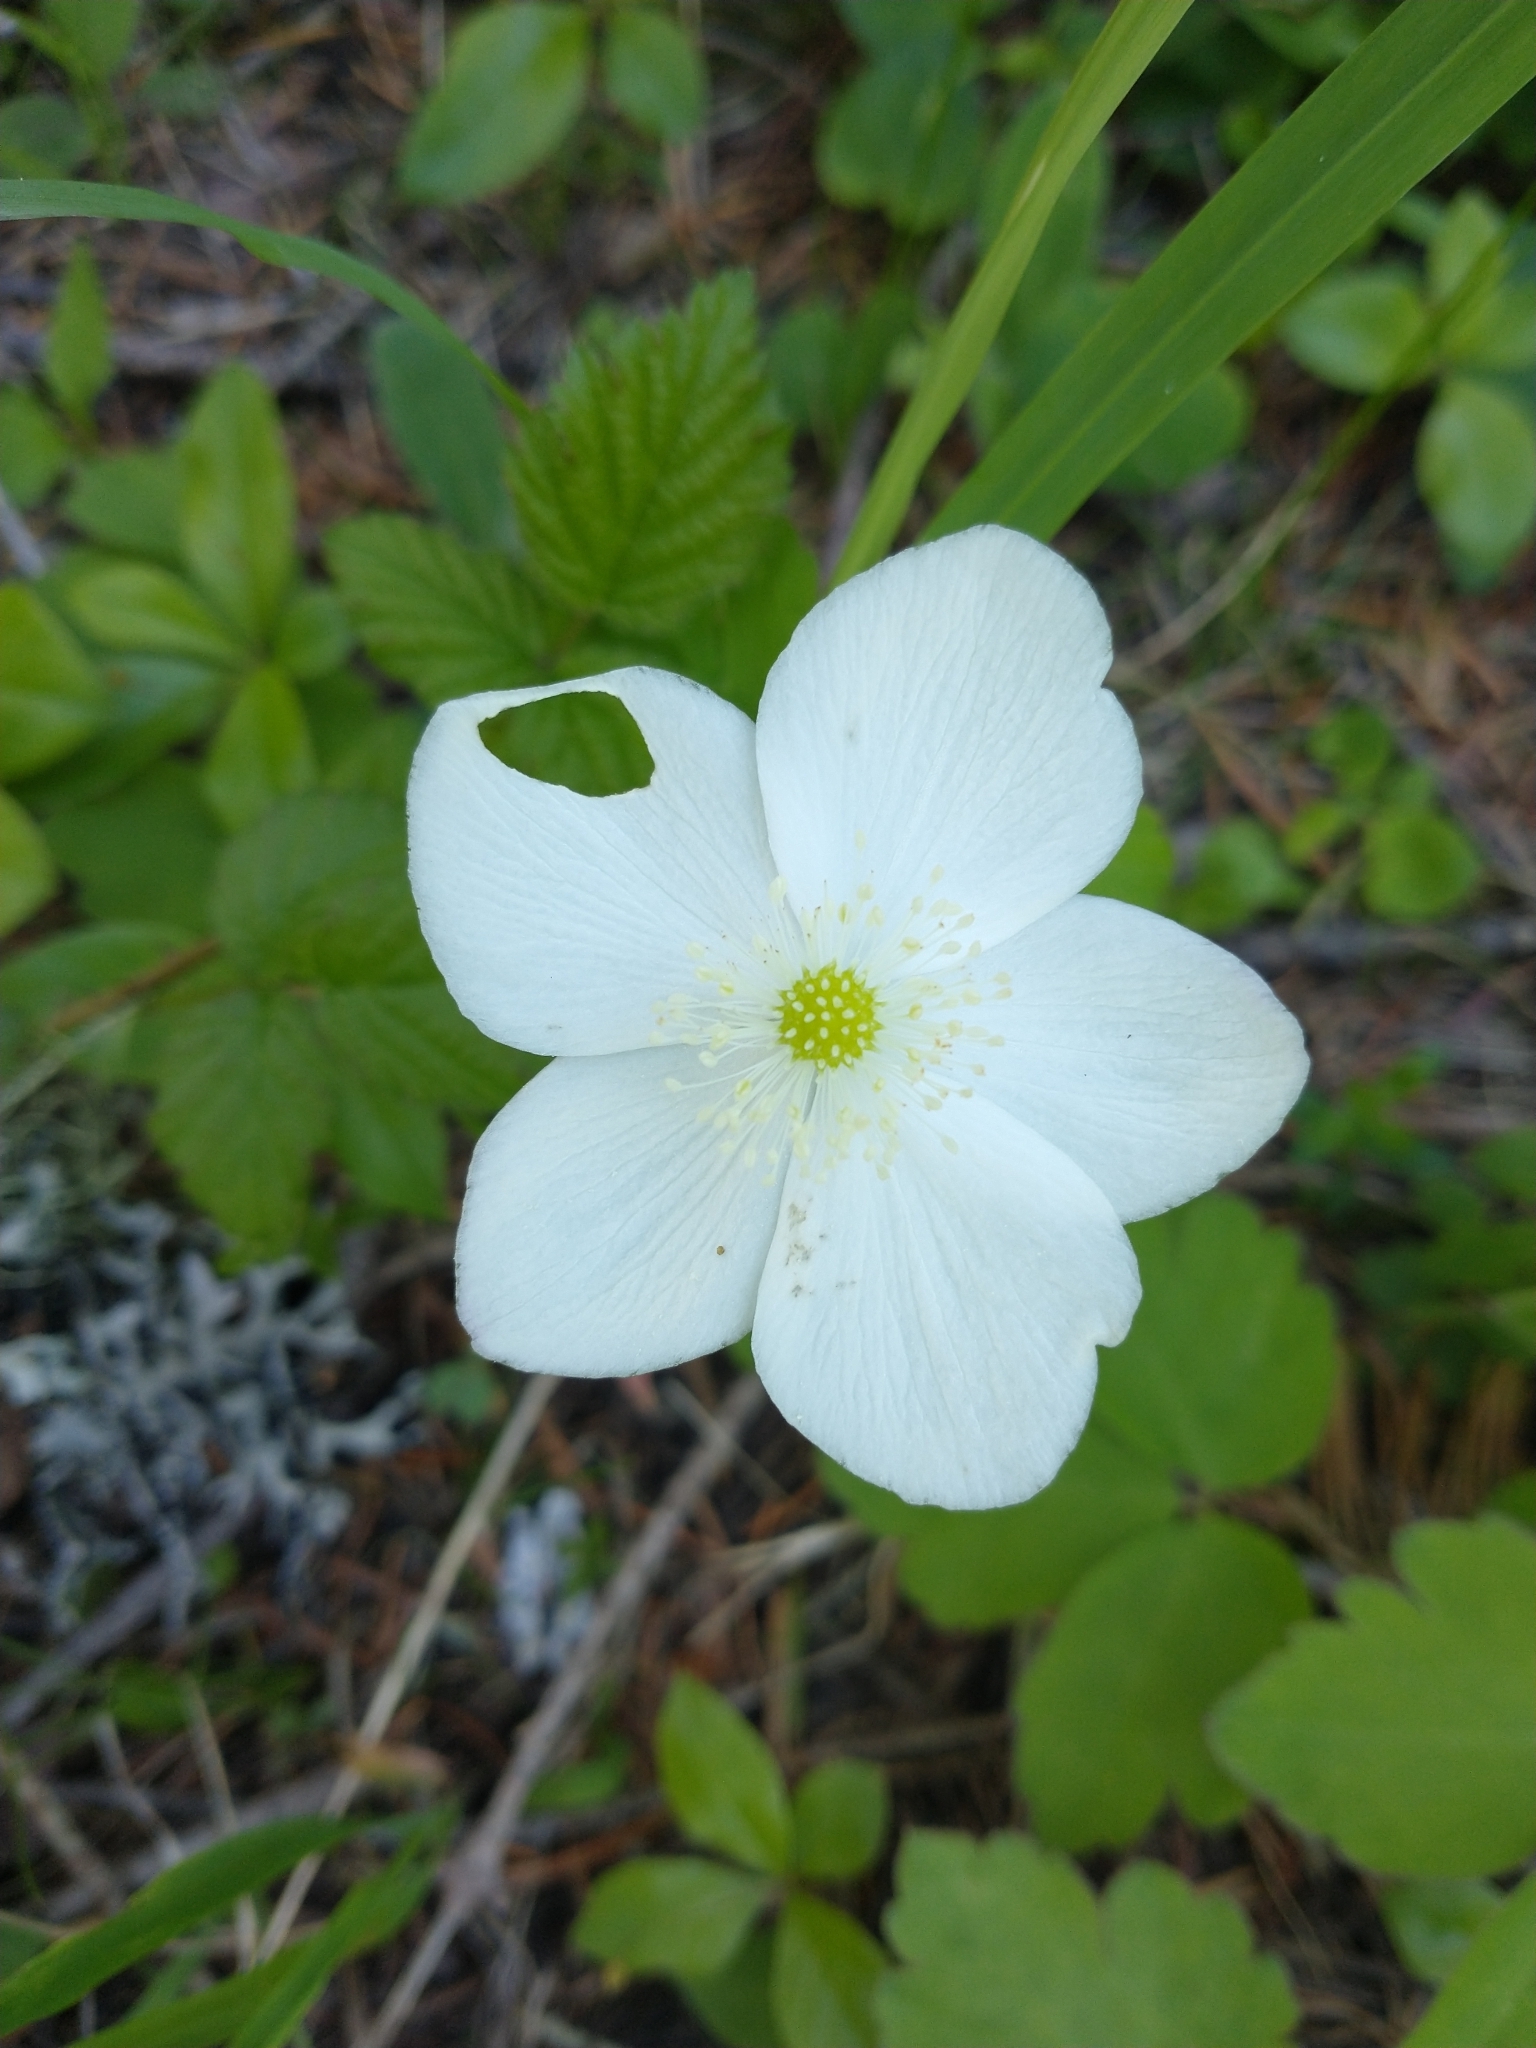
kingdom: Plantae
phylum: Tracheophyta
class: Magnoliopsida
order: Ranunculales
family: Ranunculaceae
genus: Anemonastrum
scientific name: Anemonastrum deltoideum
